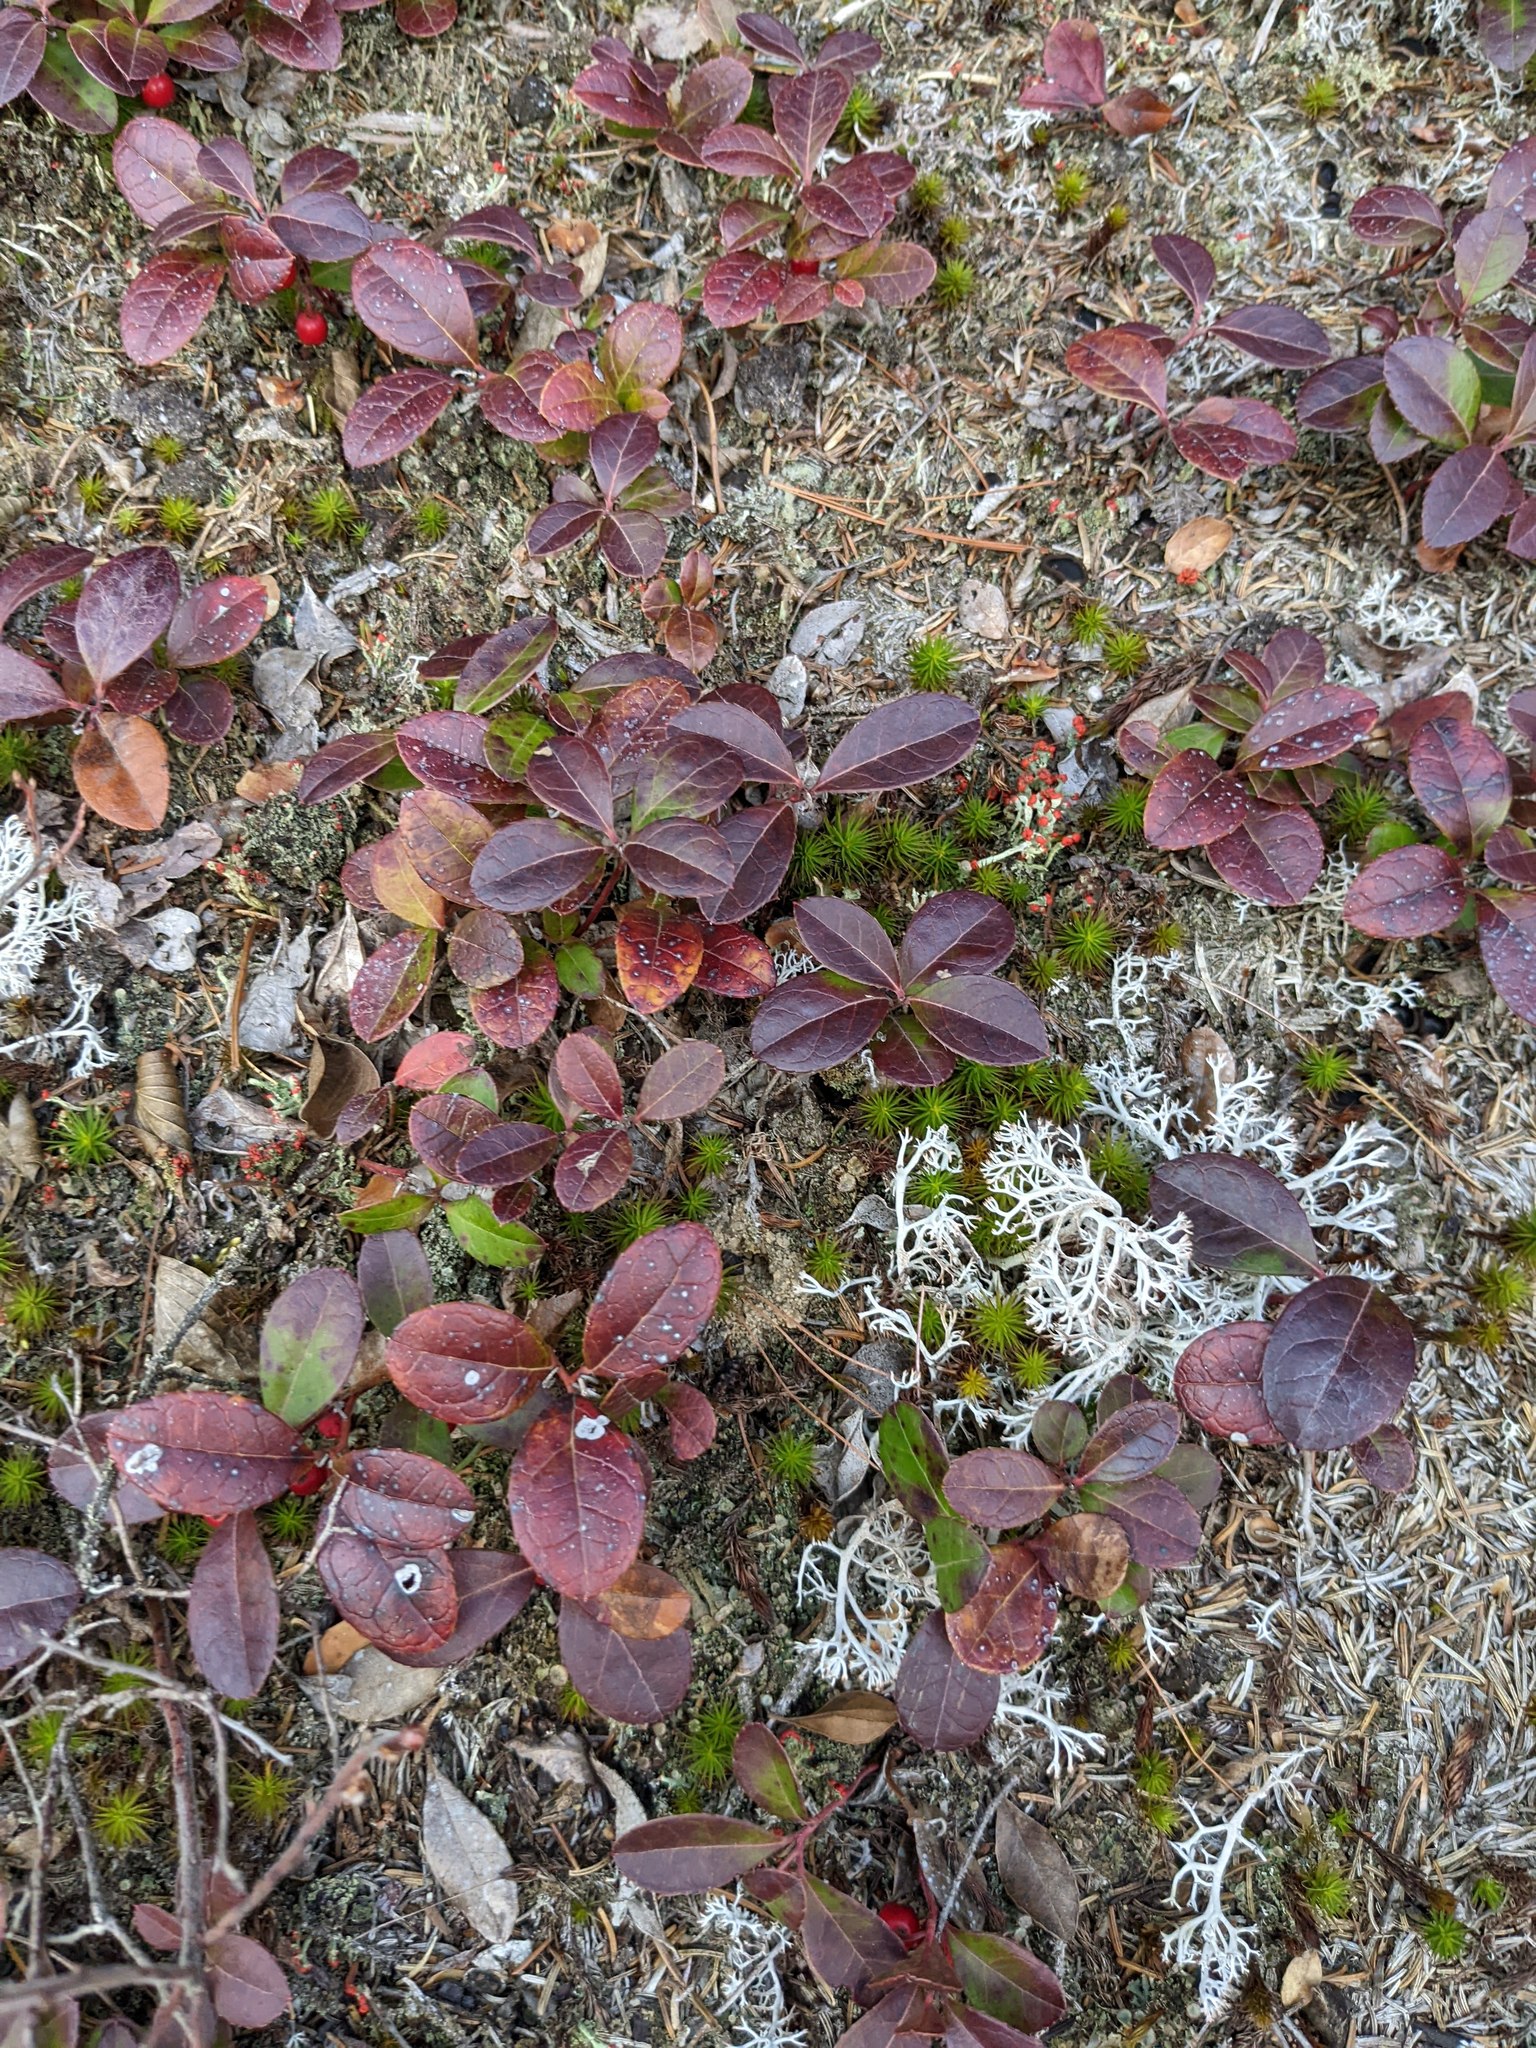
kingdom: Plantae
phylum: Tracheophyta
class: Magnoliopsida
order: Ericales
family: Ericaceae
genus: Gaultheria
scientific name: Gaultheria procumbens
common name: Checkerberry
